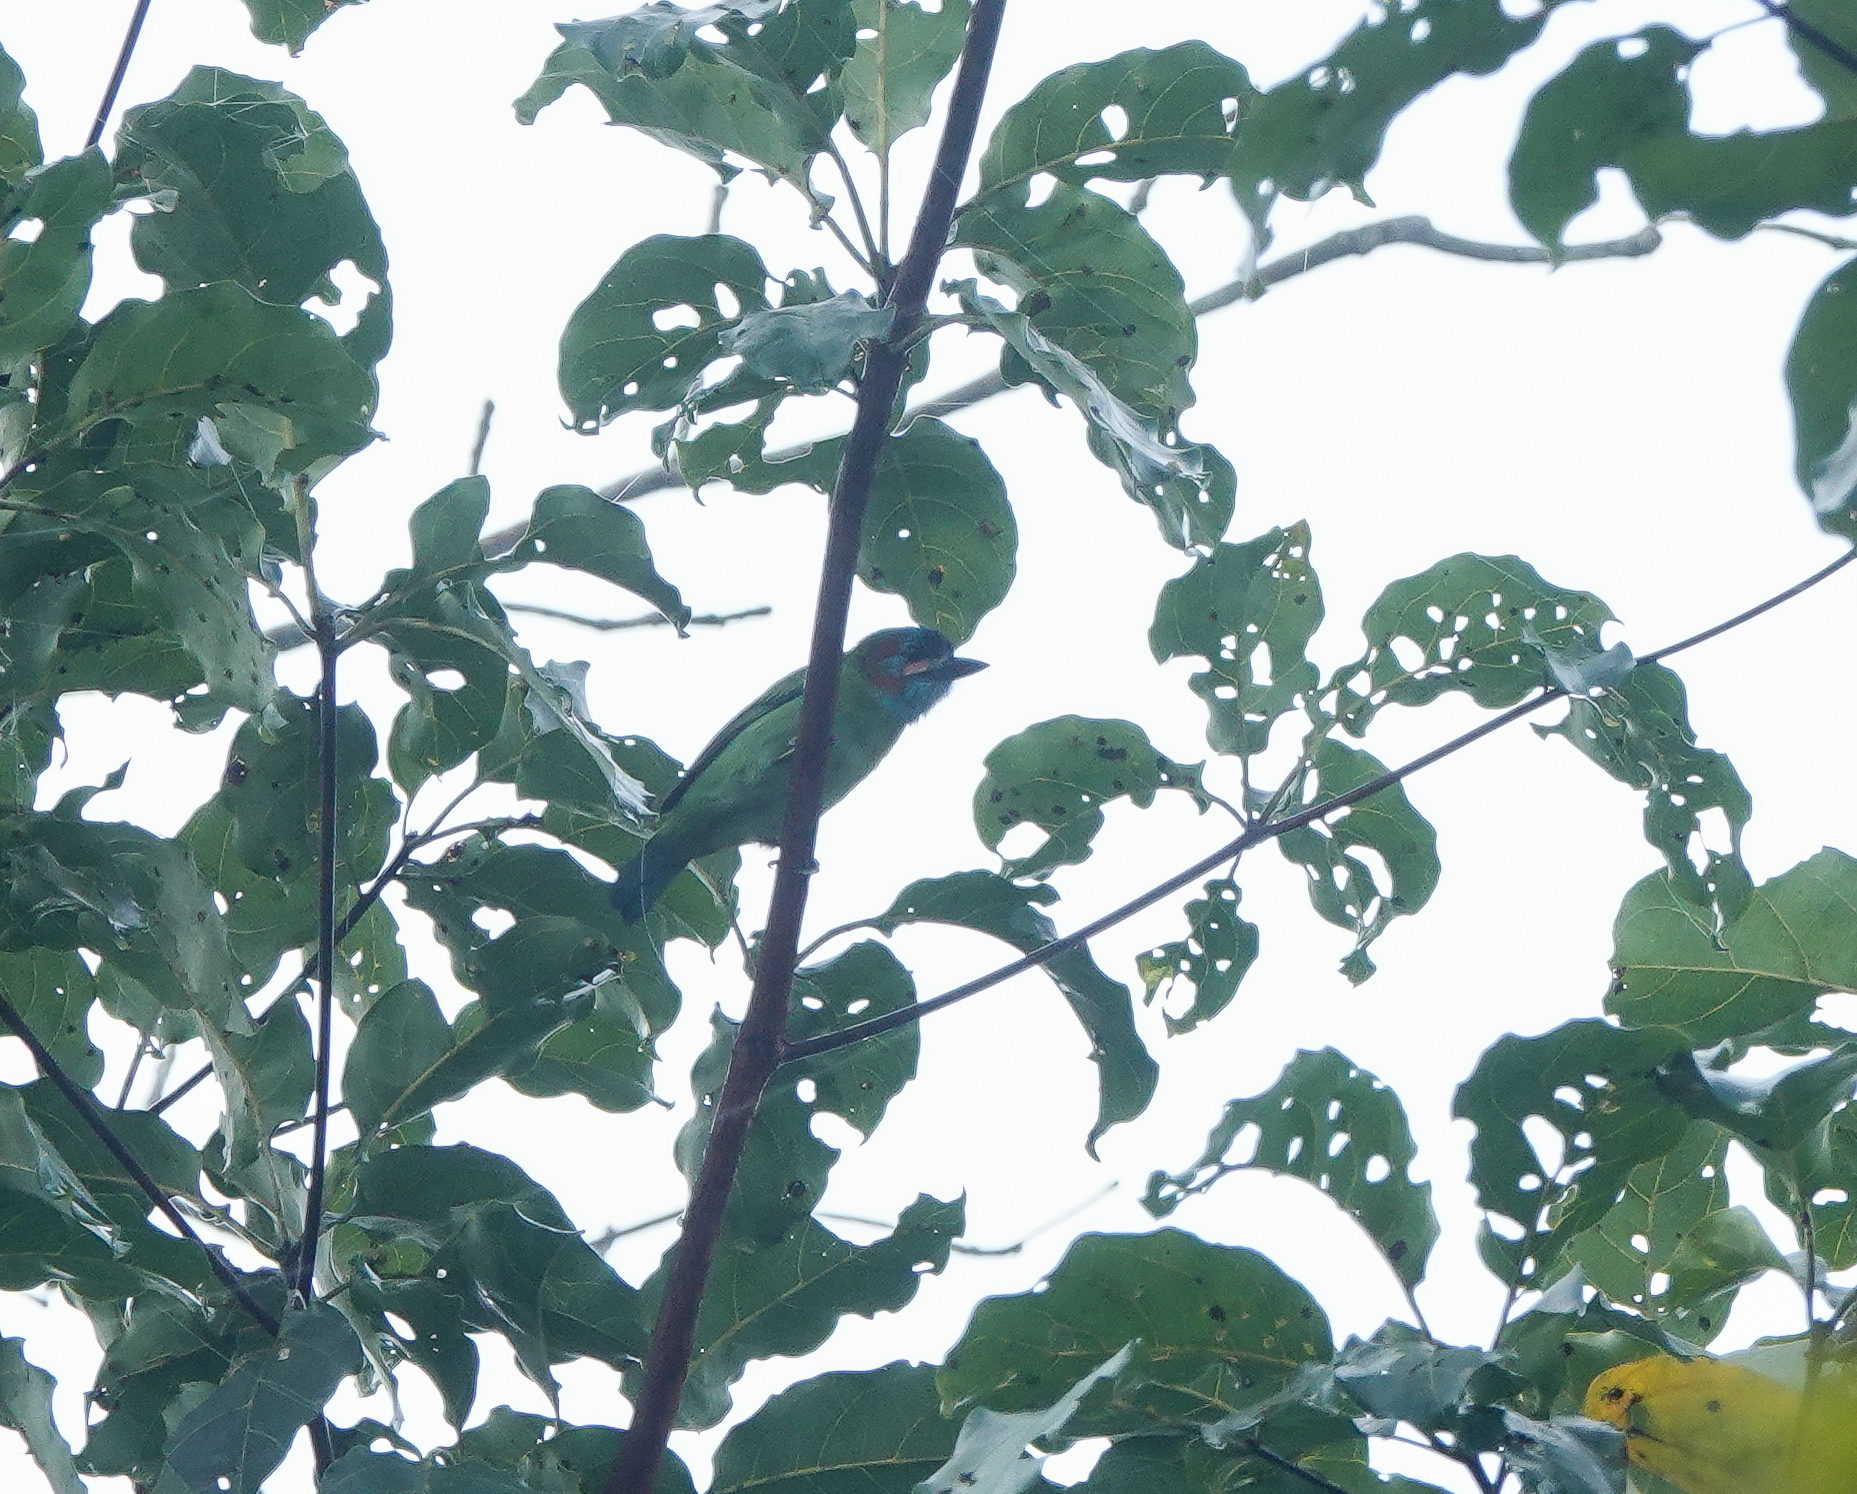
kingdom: Animalia
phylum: Chordata
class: Aves
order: Piciformes
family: Megalaimidae
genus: Psilopogon
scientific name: Psilopogon duvaucelii
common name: Blue-eared barbet
